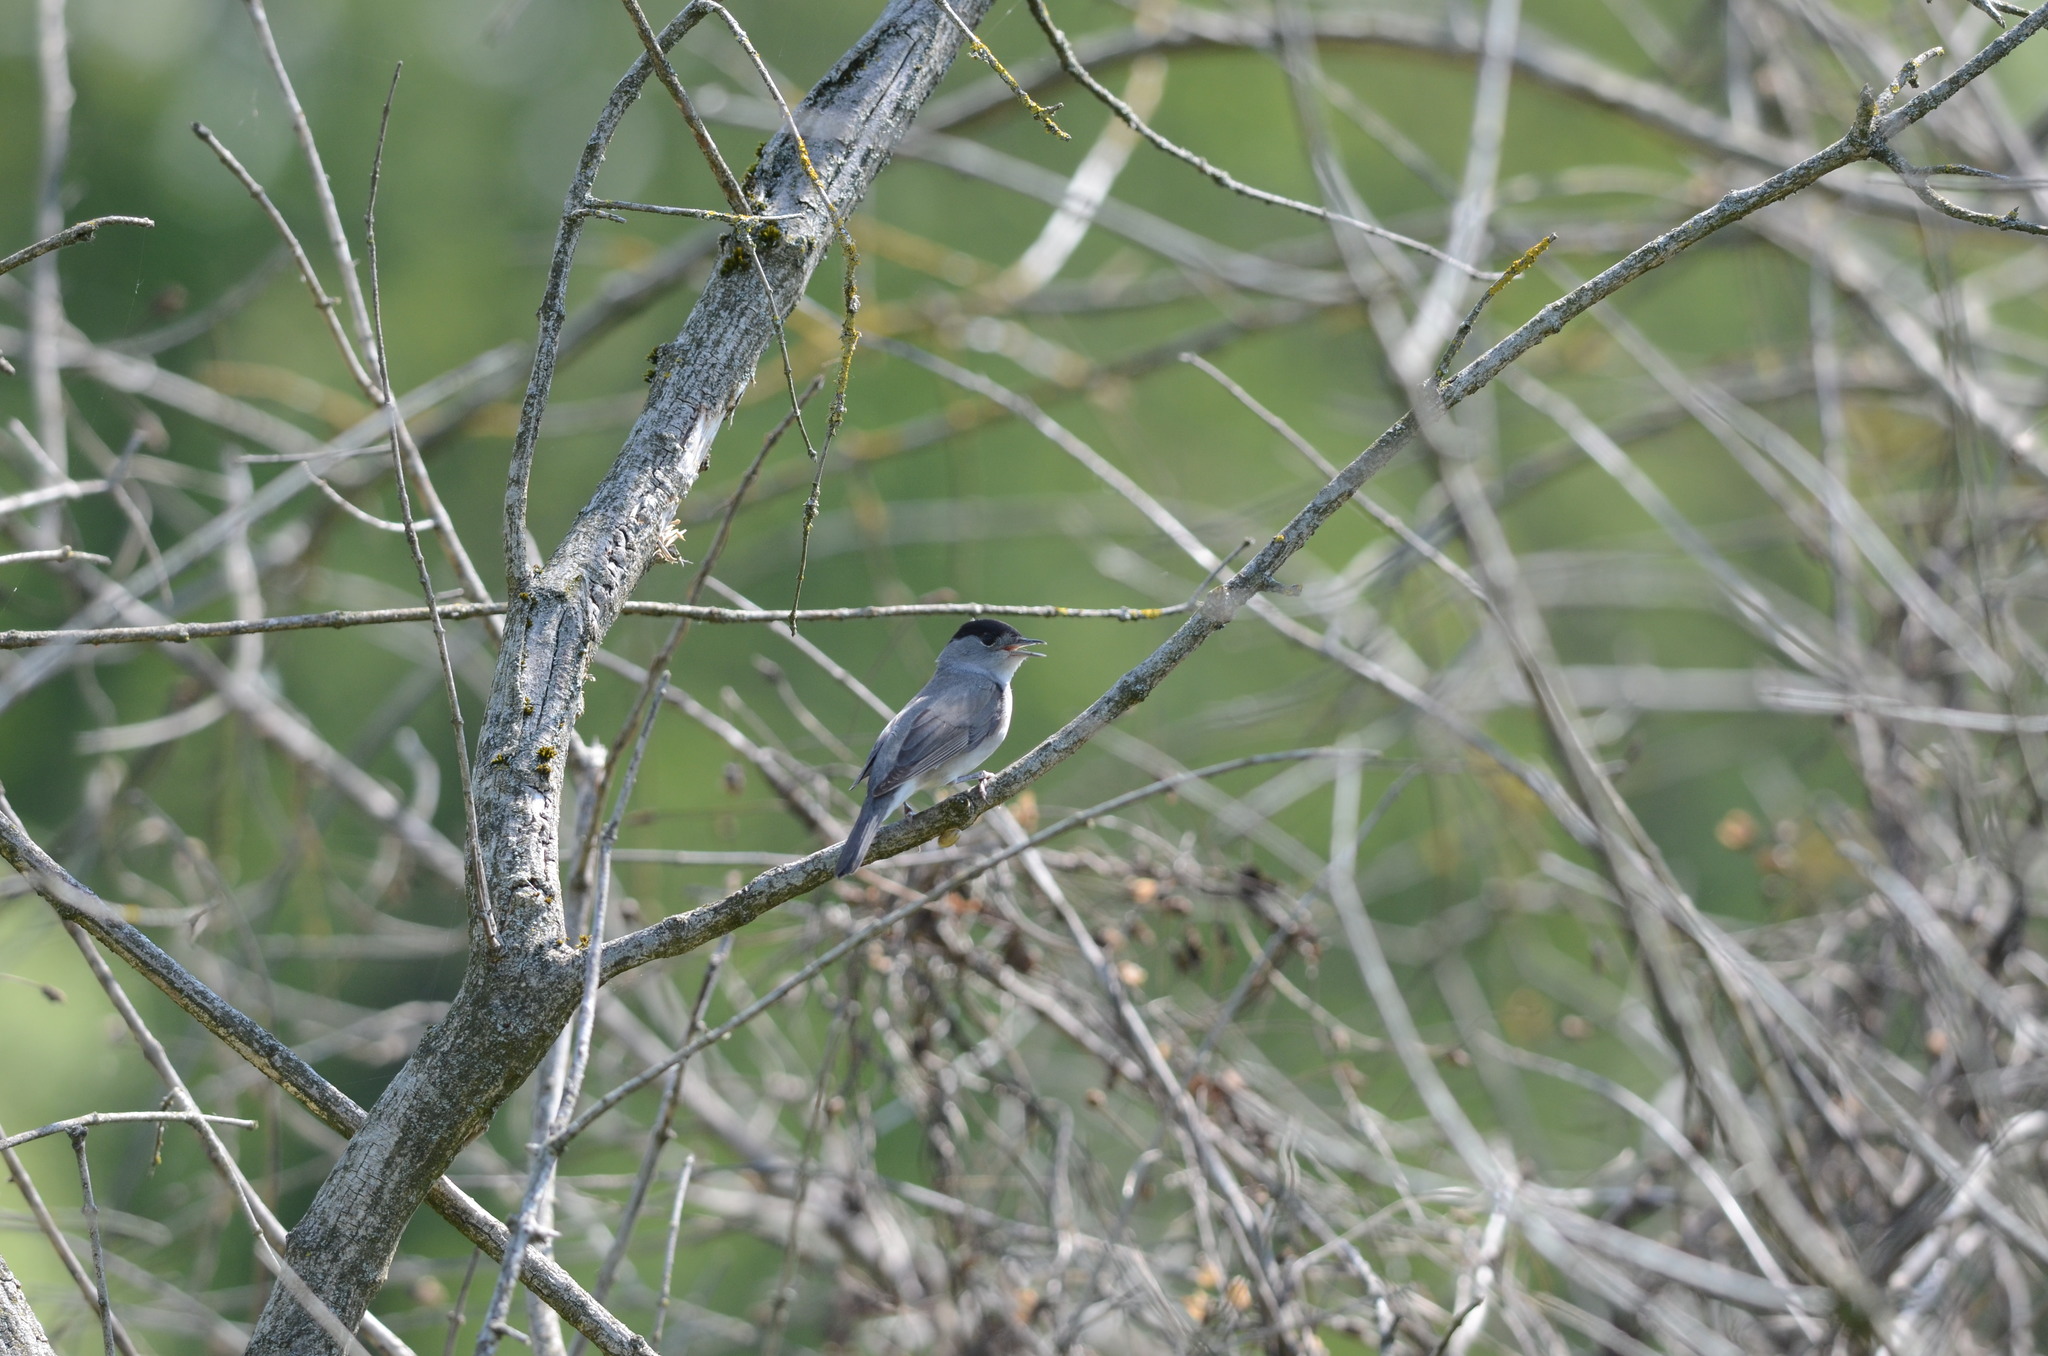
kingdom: Animalia
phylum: Chordata
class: Aves
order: Passeriformes
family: Sylviidae
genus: Sylvia
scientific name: Sylvia atricapilla
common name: Eurasian blackcap
